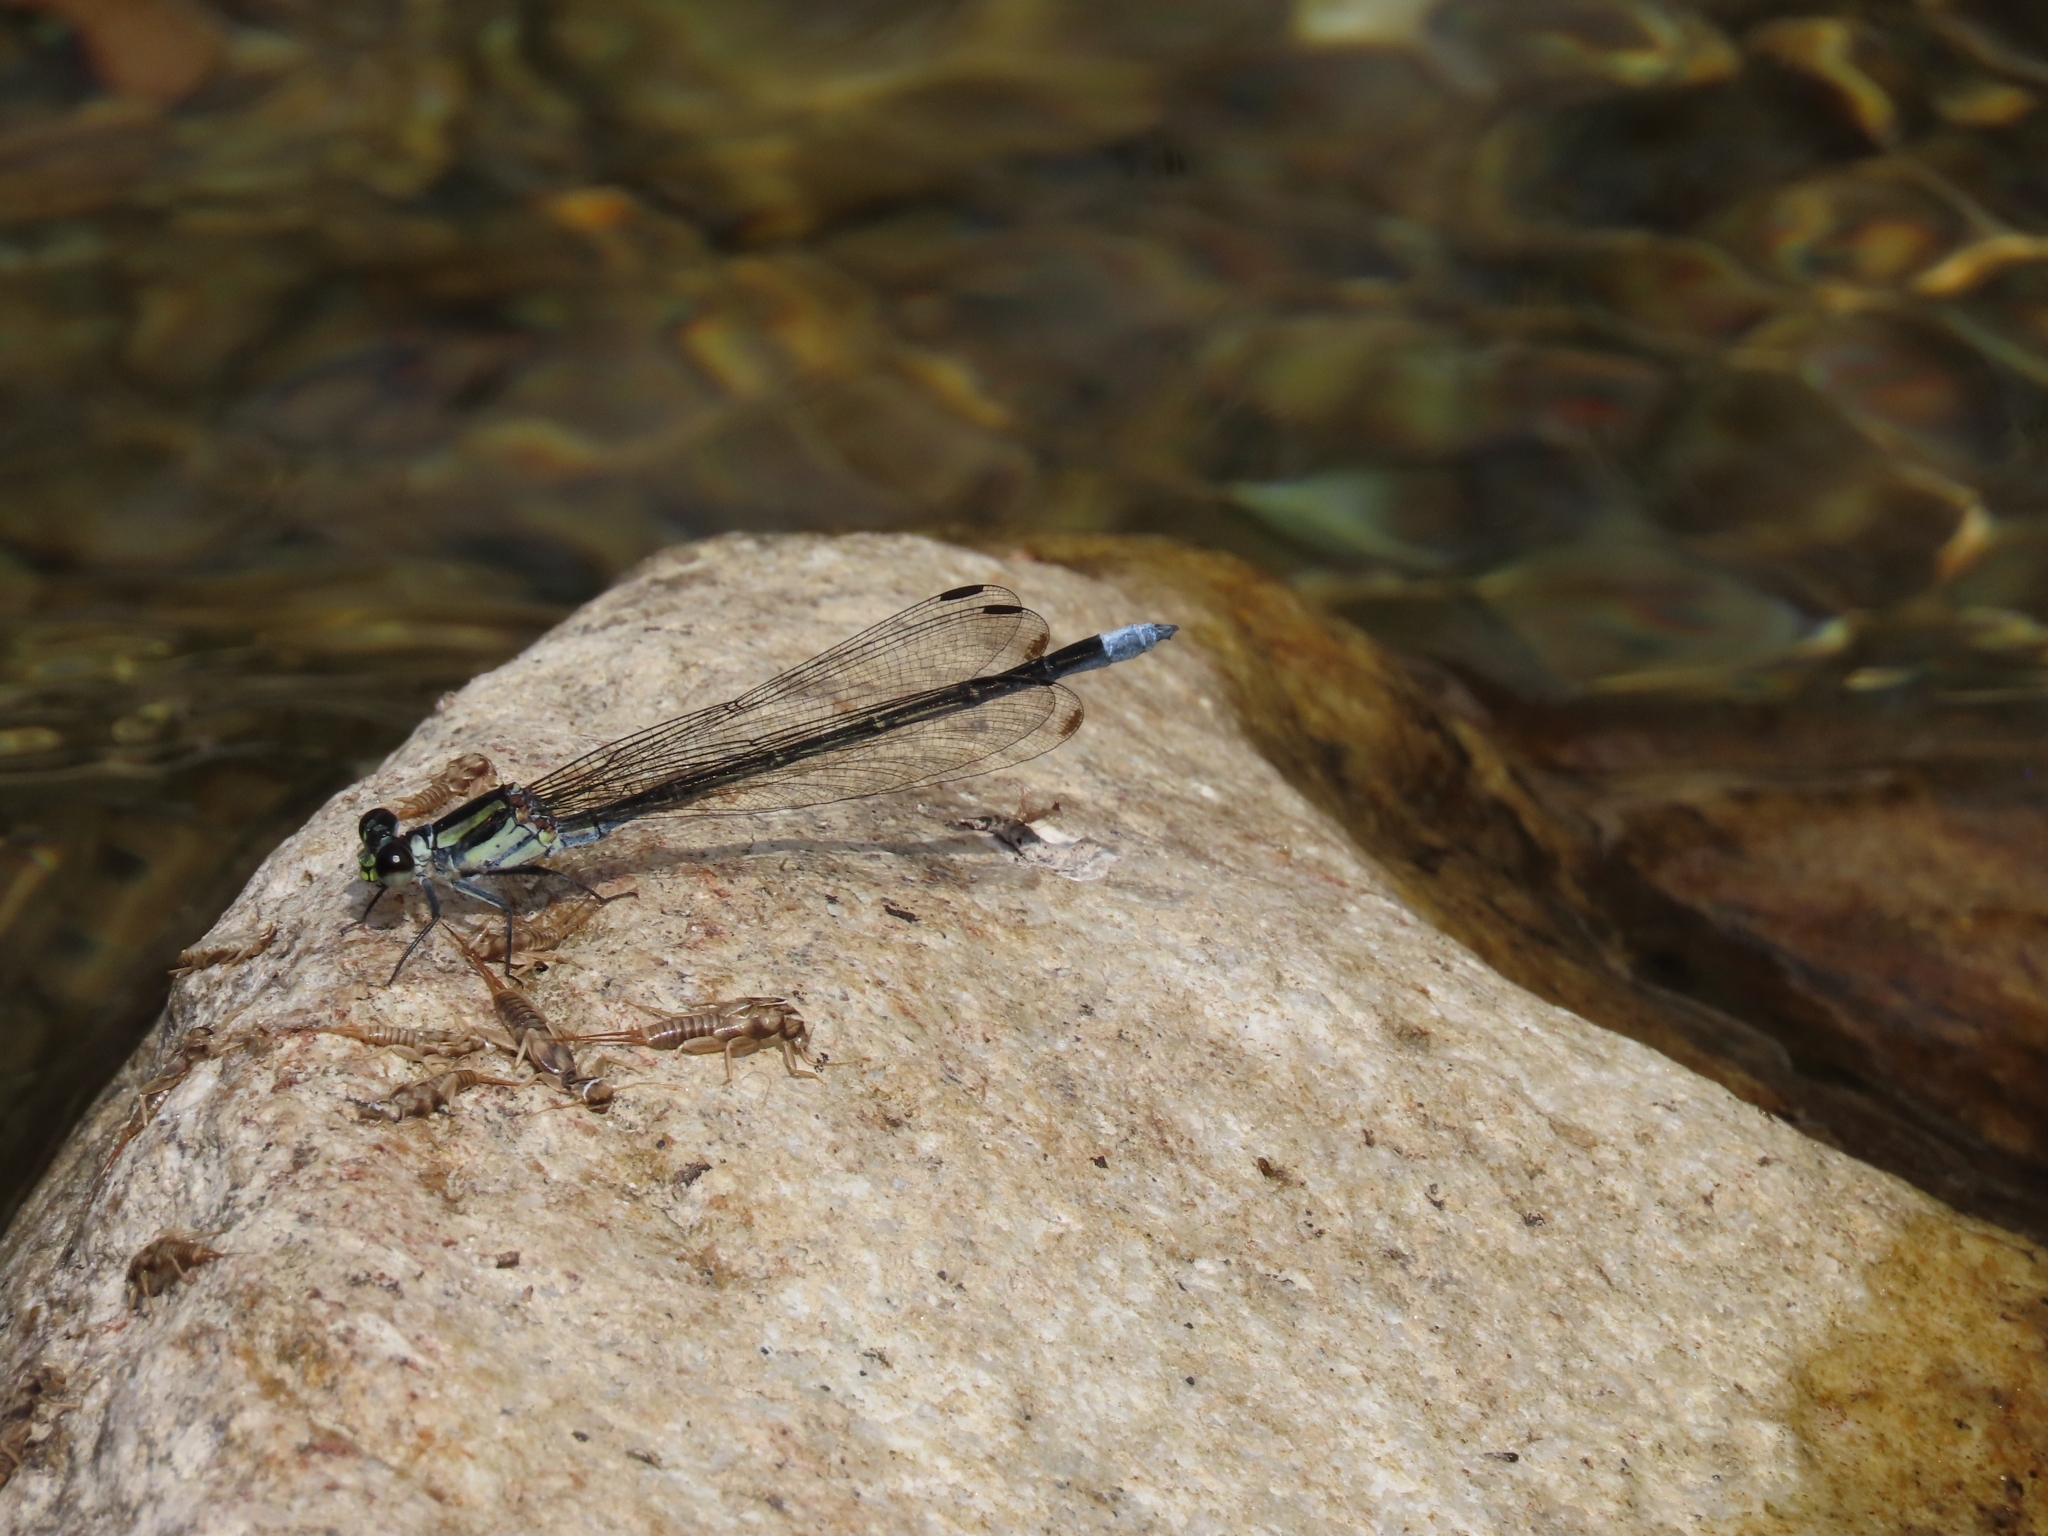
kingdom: Animalia
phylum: Arthropoda
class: Insecta
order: Odonata
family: Euphaeidae
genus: Anisopleura
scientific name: Anisopleura lestoides
